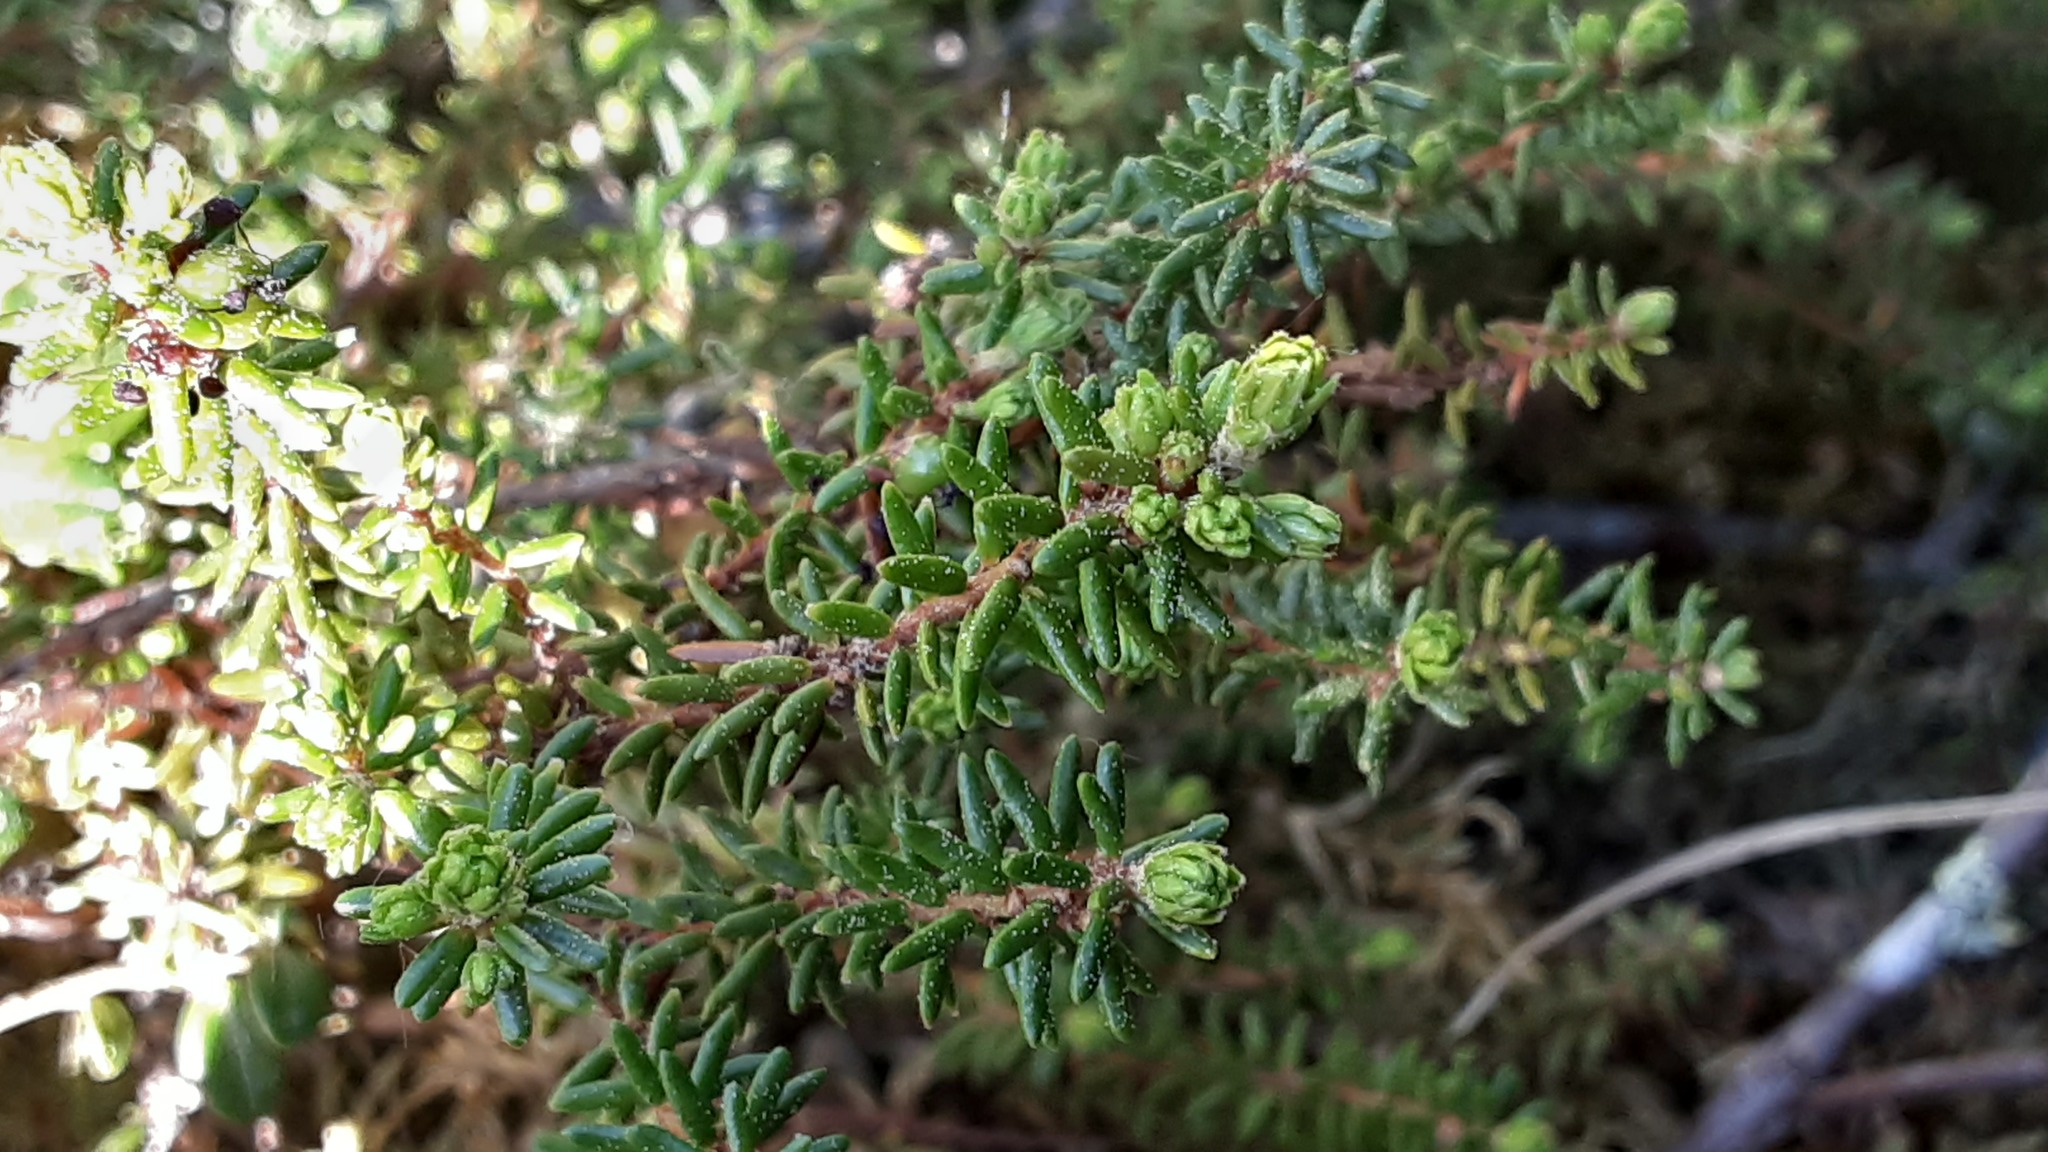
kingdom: Plantae
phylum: Tracheophyta
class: Magnoliopsida
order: Ericales
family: Ericaceae
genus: Empetrum
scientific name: Empetrum nigrum
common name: Black crowberry
